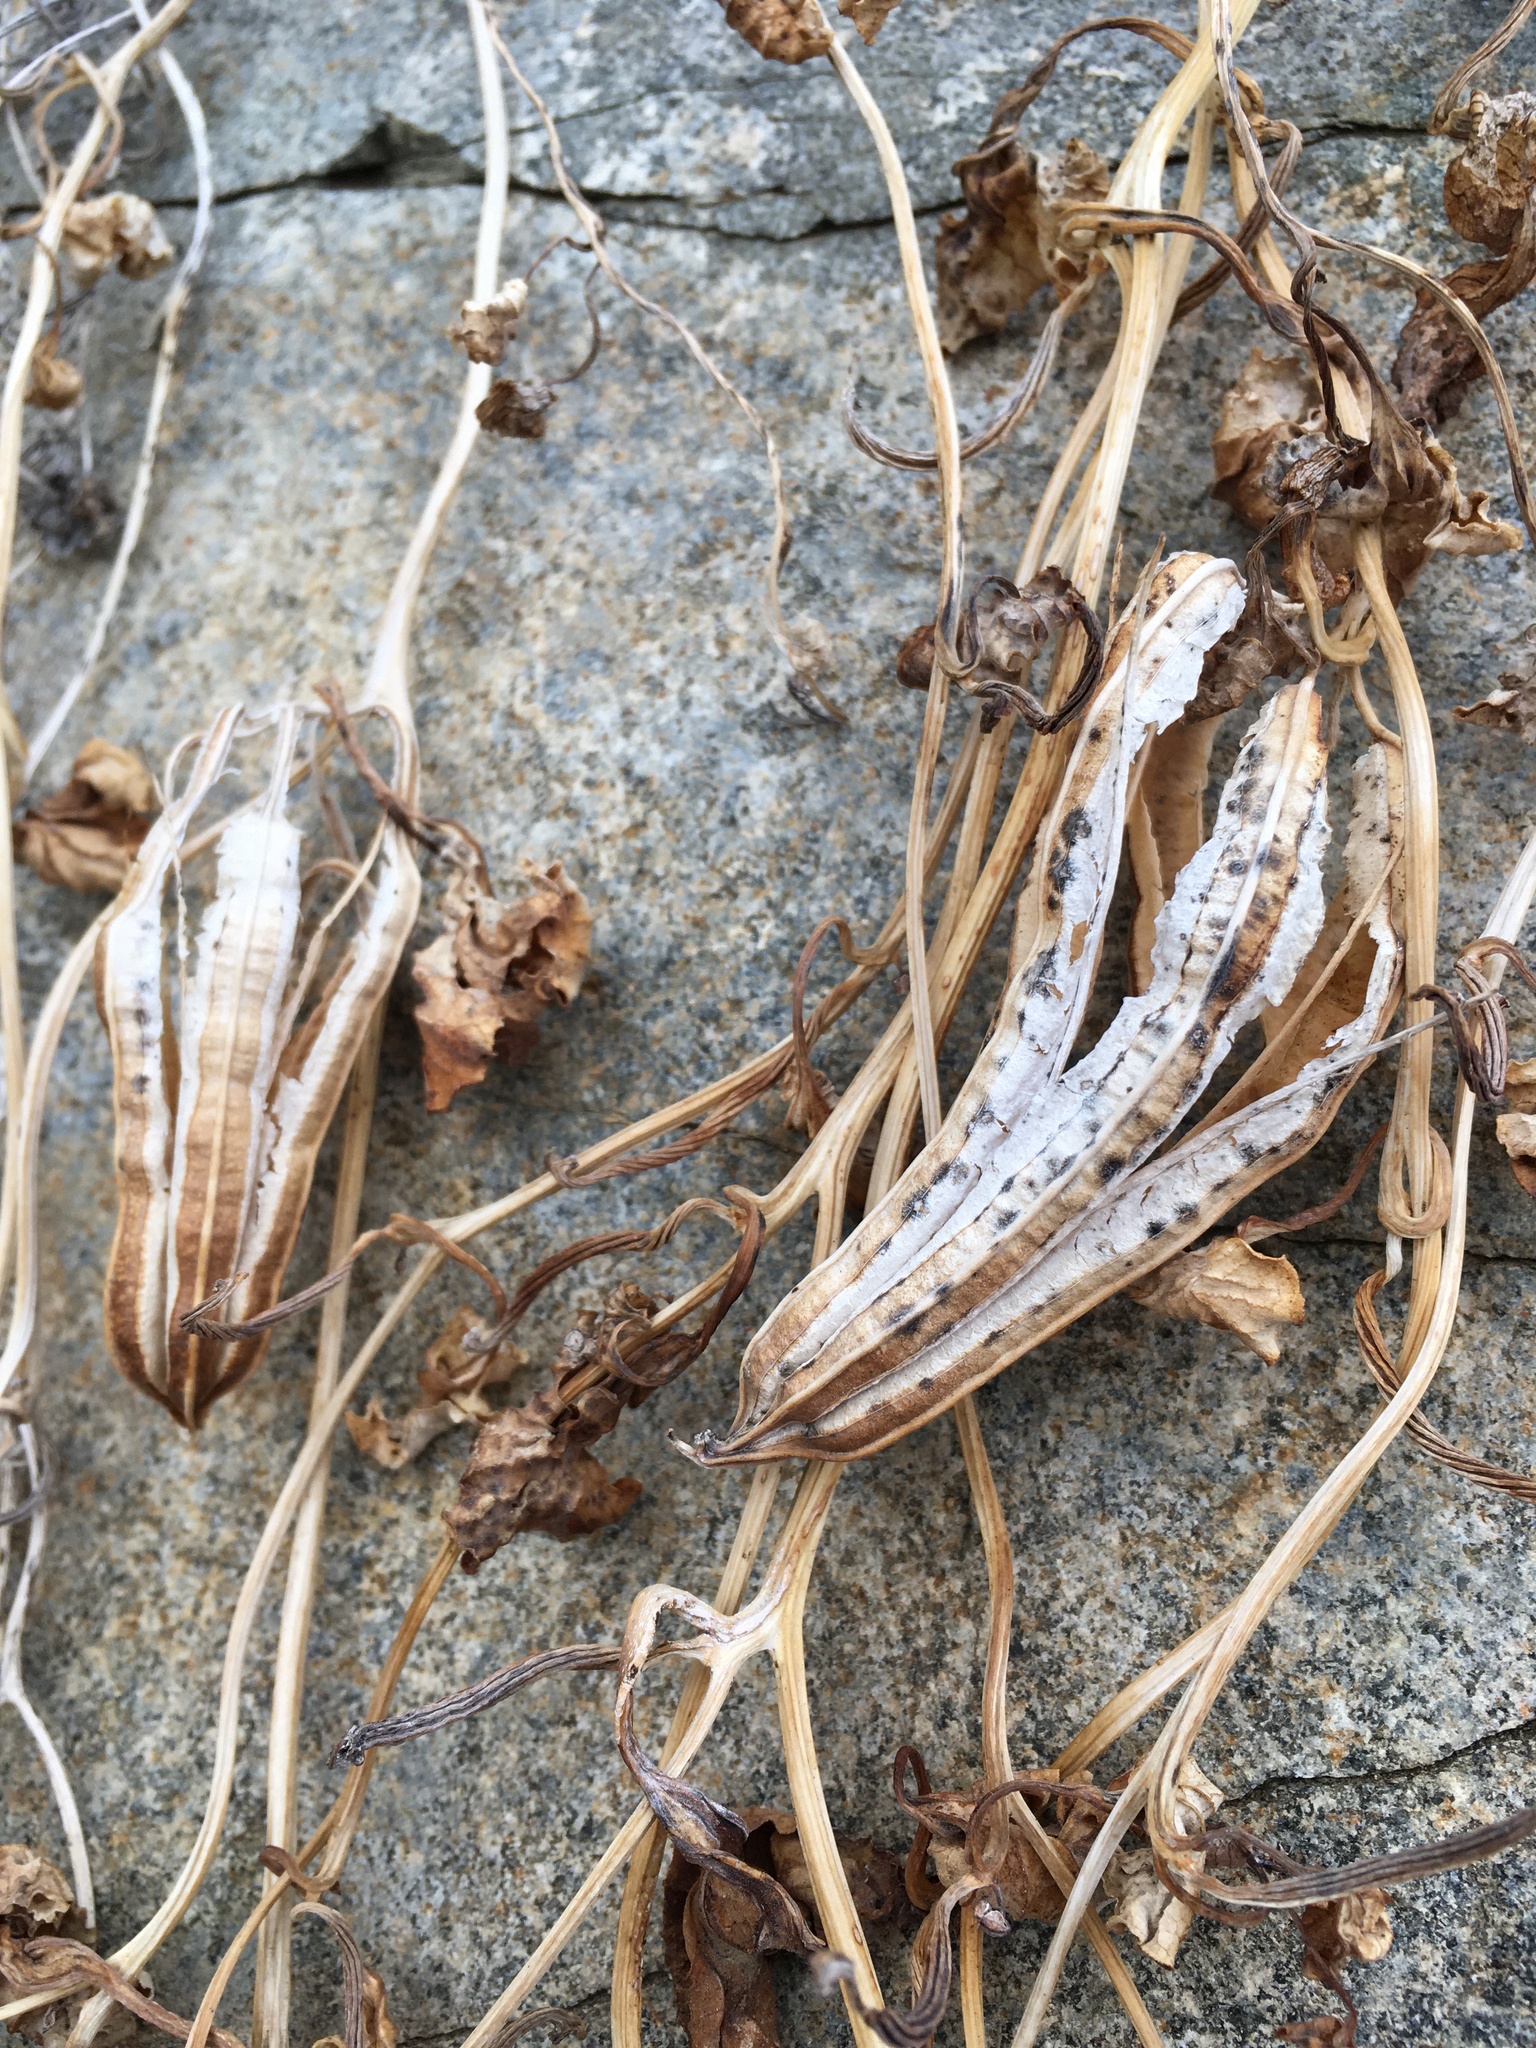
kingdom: Plantae
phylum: Tracheophyta
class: Magnoliopsida
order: Piperales
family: Aristolochiaceae
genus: Aristolochia
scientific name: Aristolochia chilensis
